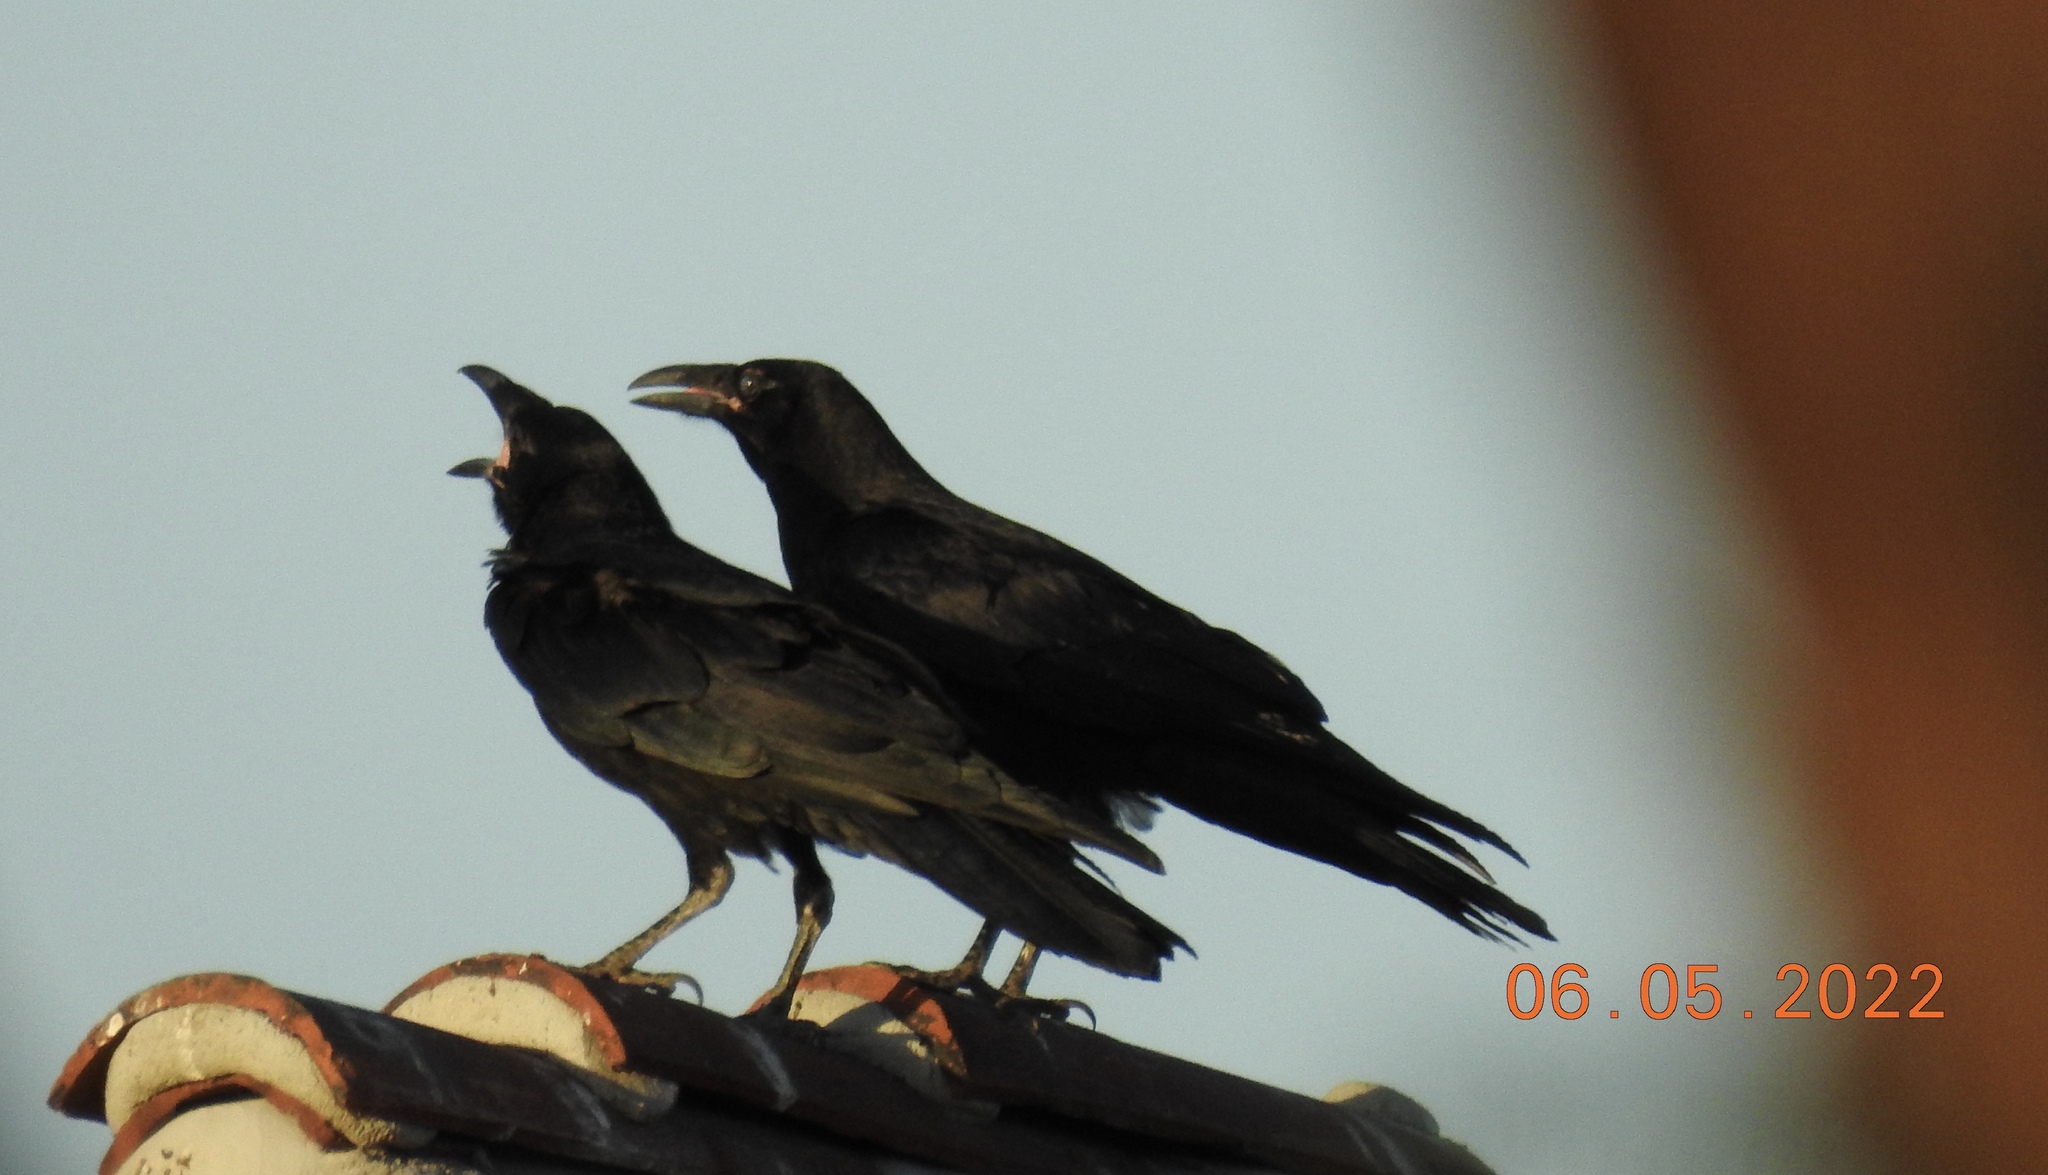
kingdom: Animalia
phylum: Chordata
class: Aves
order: Passeriformes
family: Corvidae
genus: Corvus
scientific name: Corvus corax
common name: Common raven
